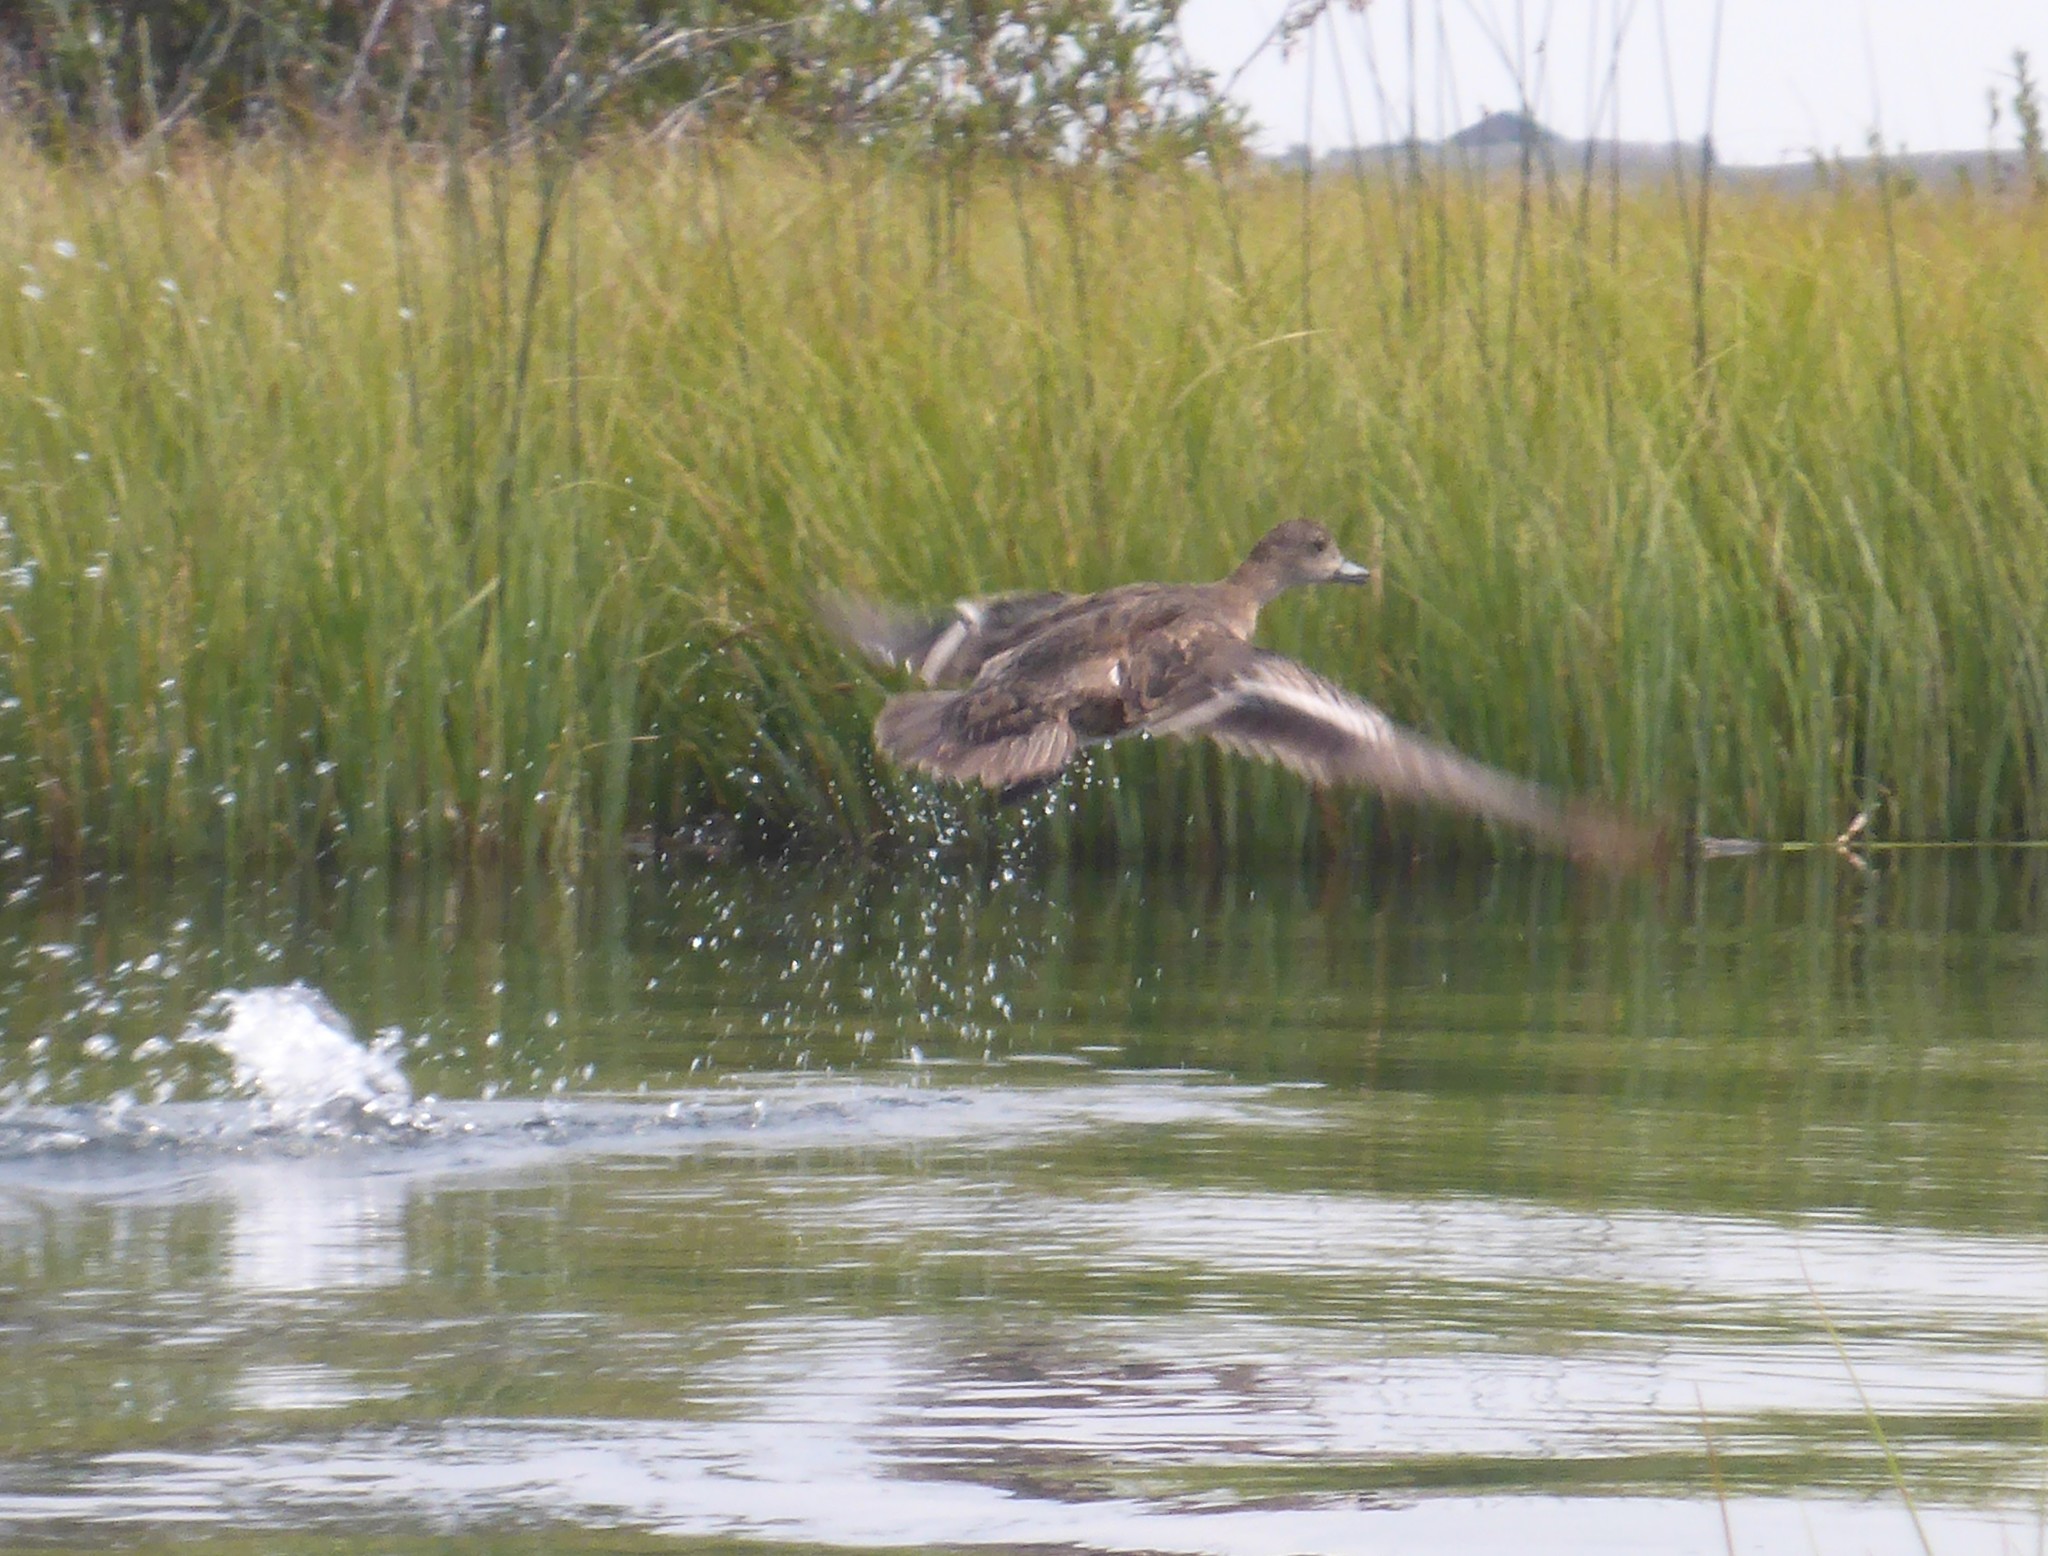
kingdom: Animalia
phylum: Chordata
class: Aves
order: Anseriformes
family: Anatidae
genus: Mareca
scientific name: Mareca americana
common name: American wigeon
